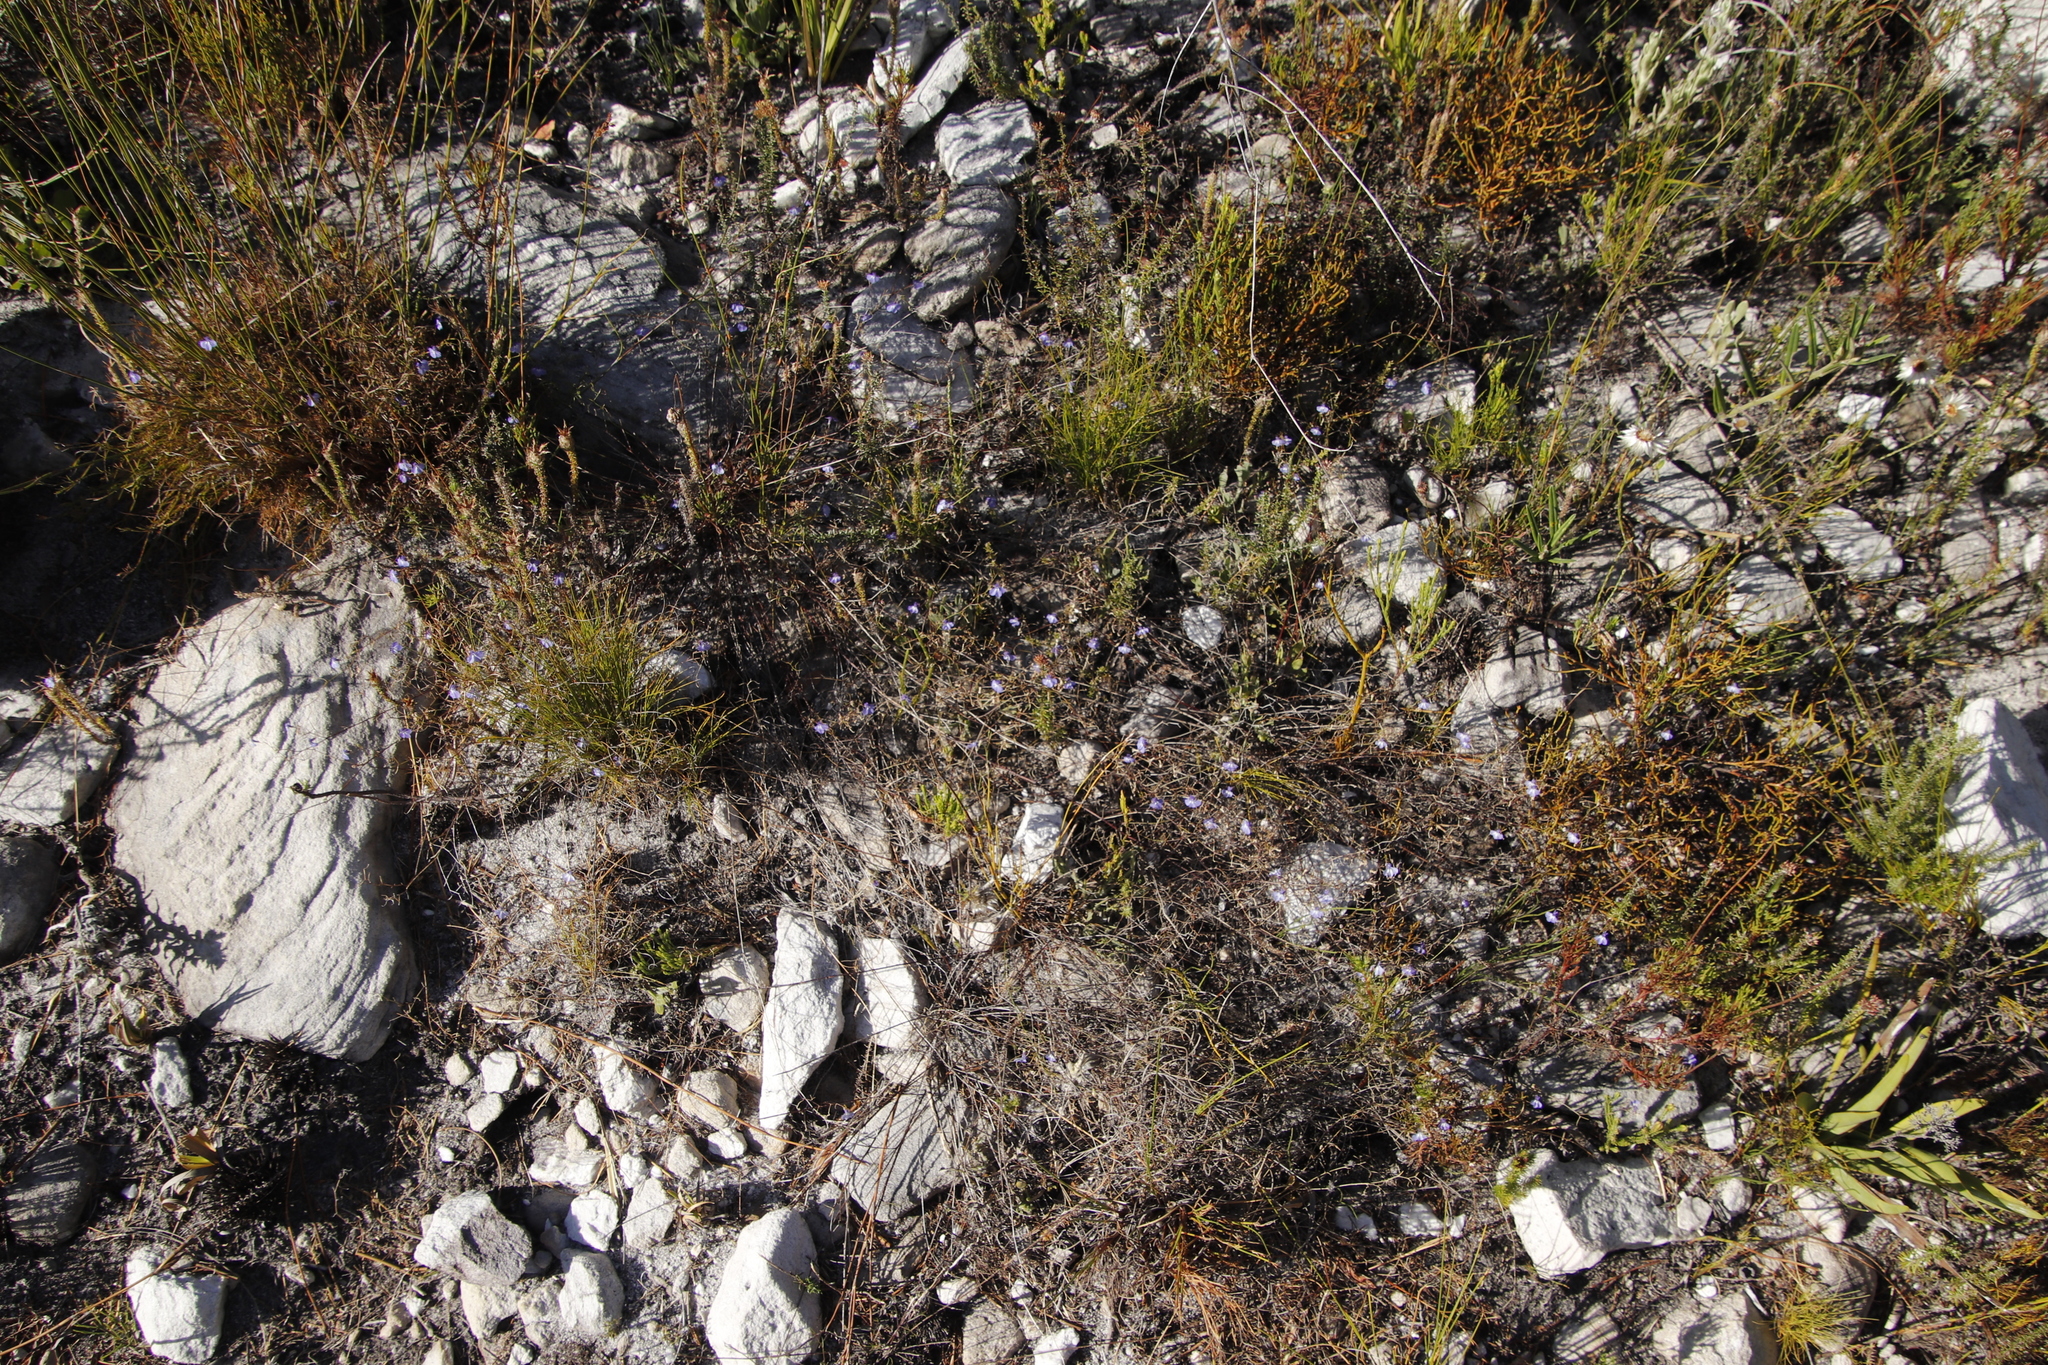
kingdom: Plantae
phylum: Tracheophyta
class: Magnoliopsida
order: Asterales
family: Campanulaceae
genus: Lobelia
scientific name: Lobelia setacea
